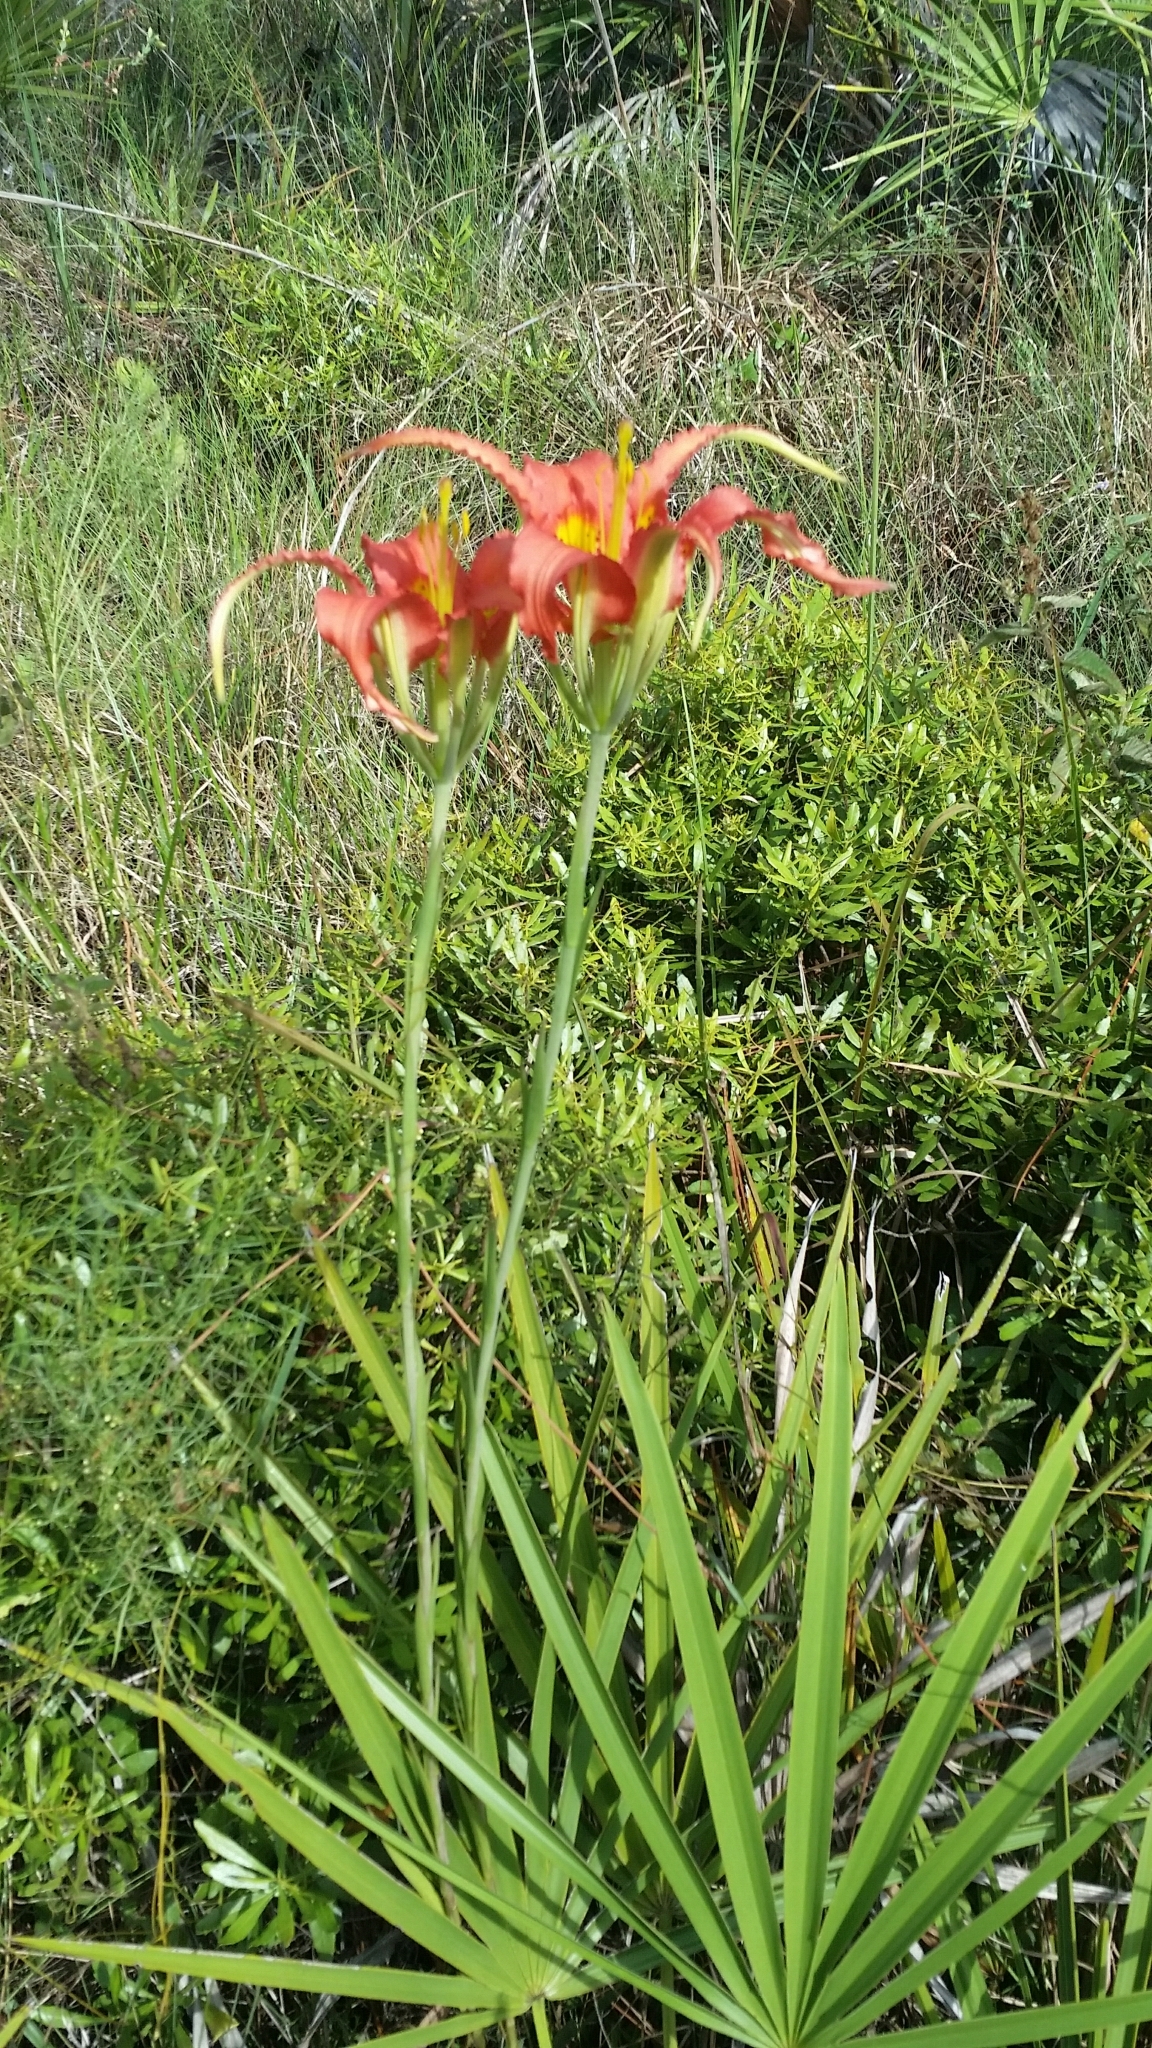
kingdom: Plantae
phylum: Tracheophyta
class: Liliopsida
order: Liliales
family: Liliaceae
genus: Lilium
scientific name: Lilium catesbaei
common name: Catesby's lily
